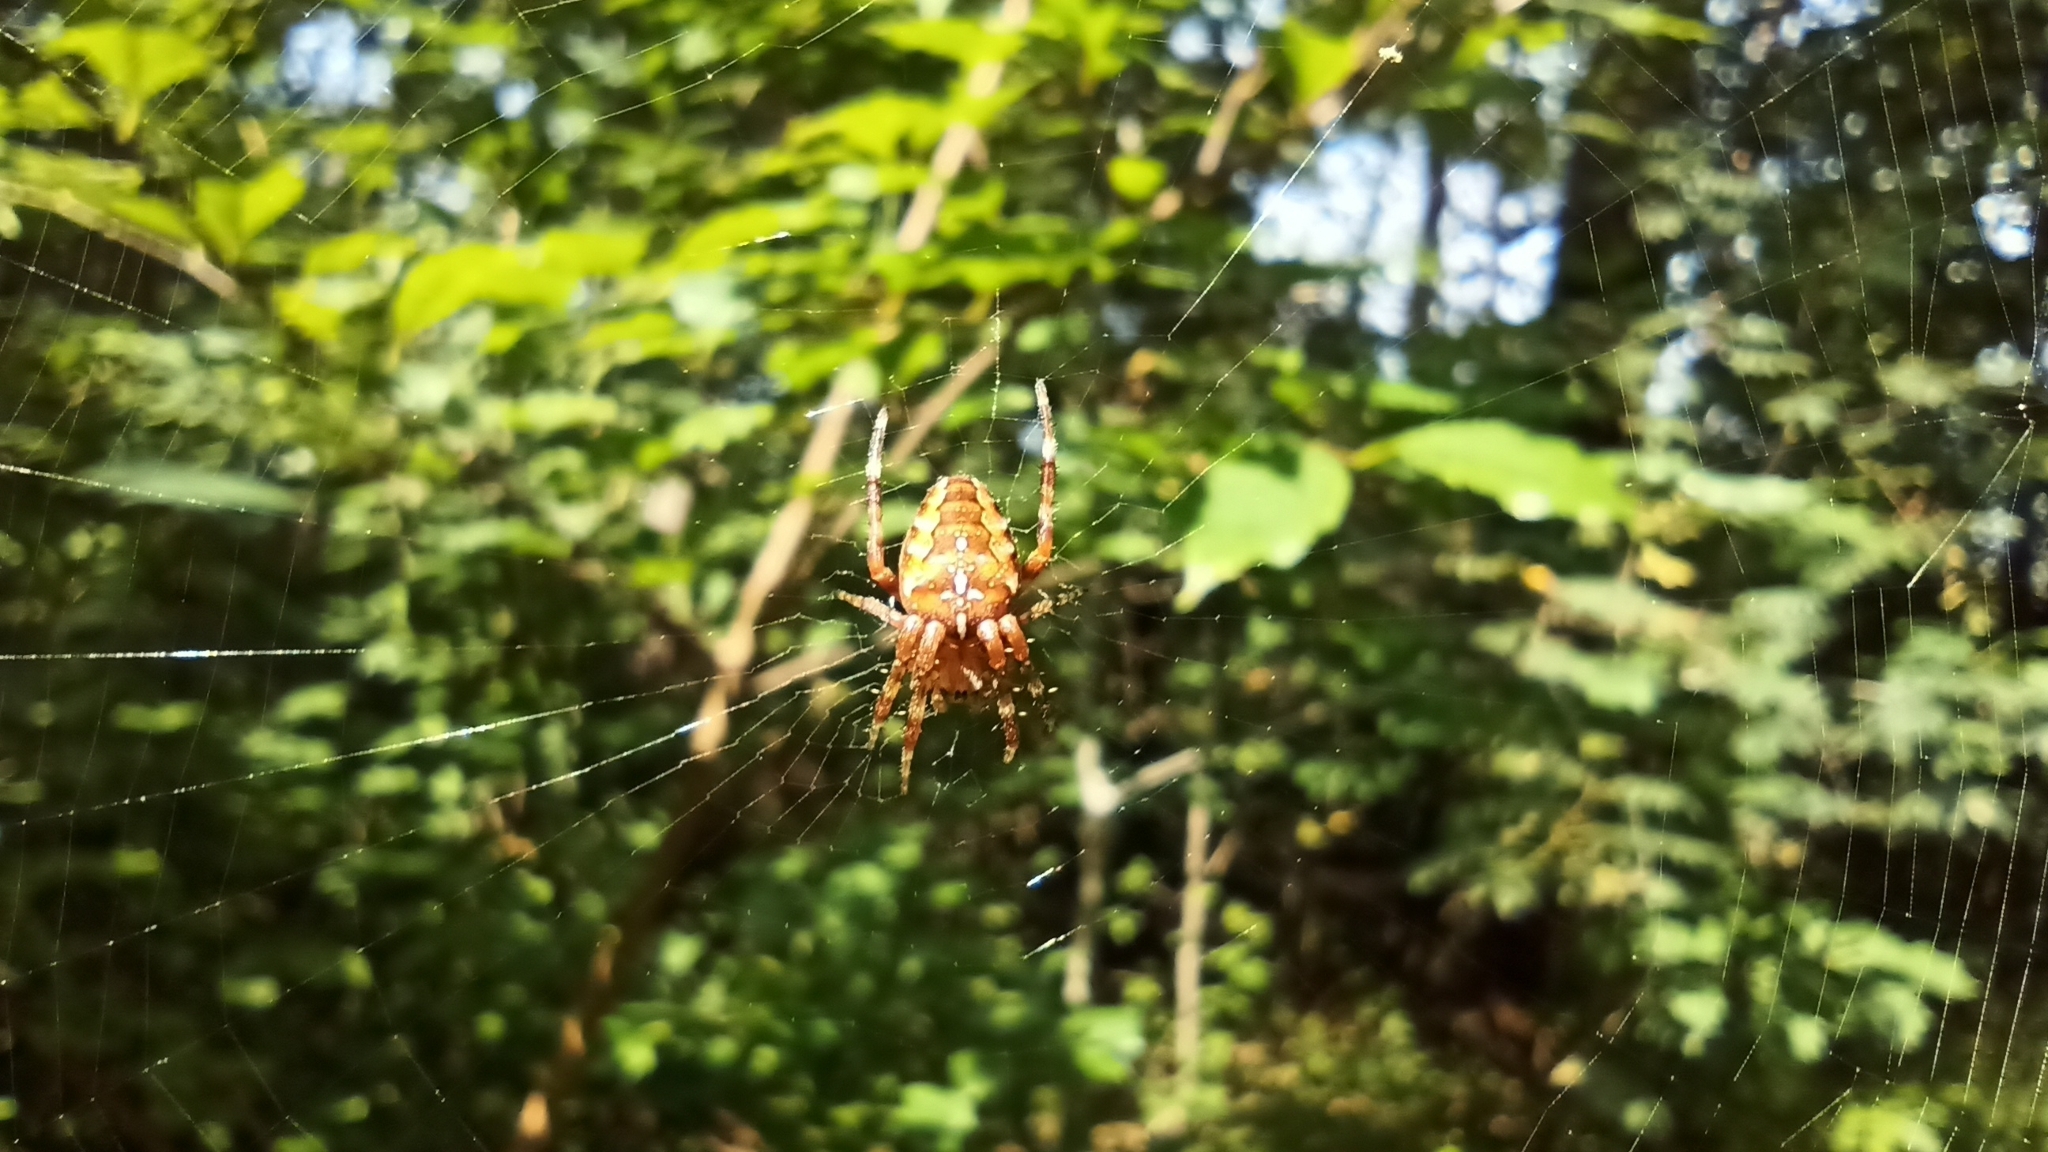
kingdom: Animalia
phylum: Arthropoda
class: Arachnida
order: Araneae
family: Araneidae
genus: Araneus
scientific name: Araneus diadematus
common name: Cross orbweaver
